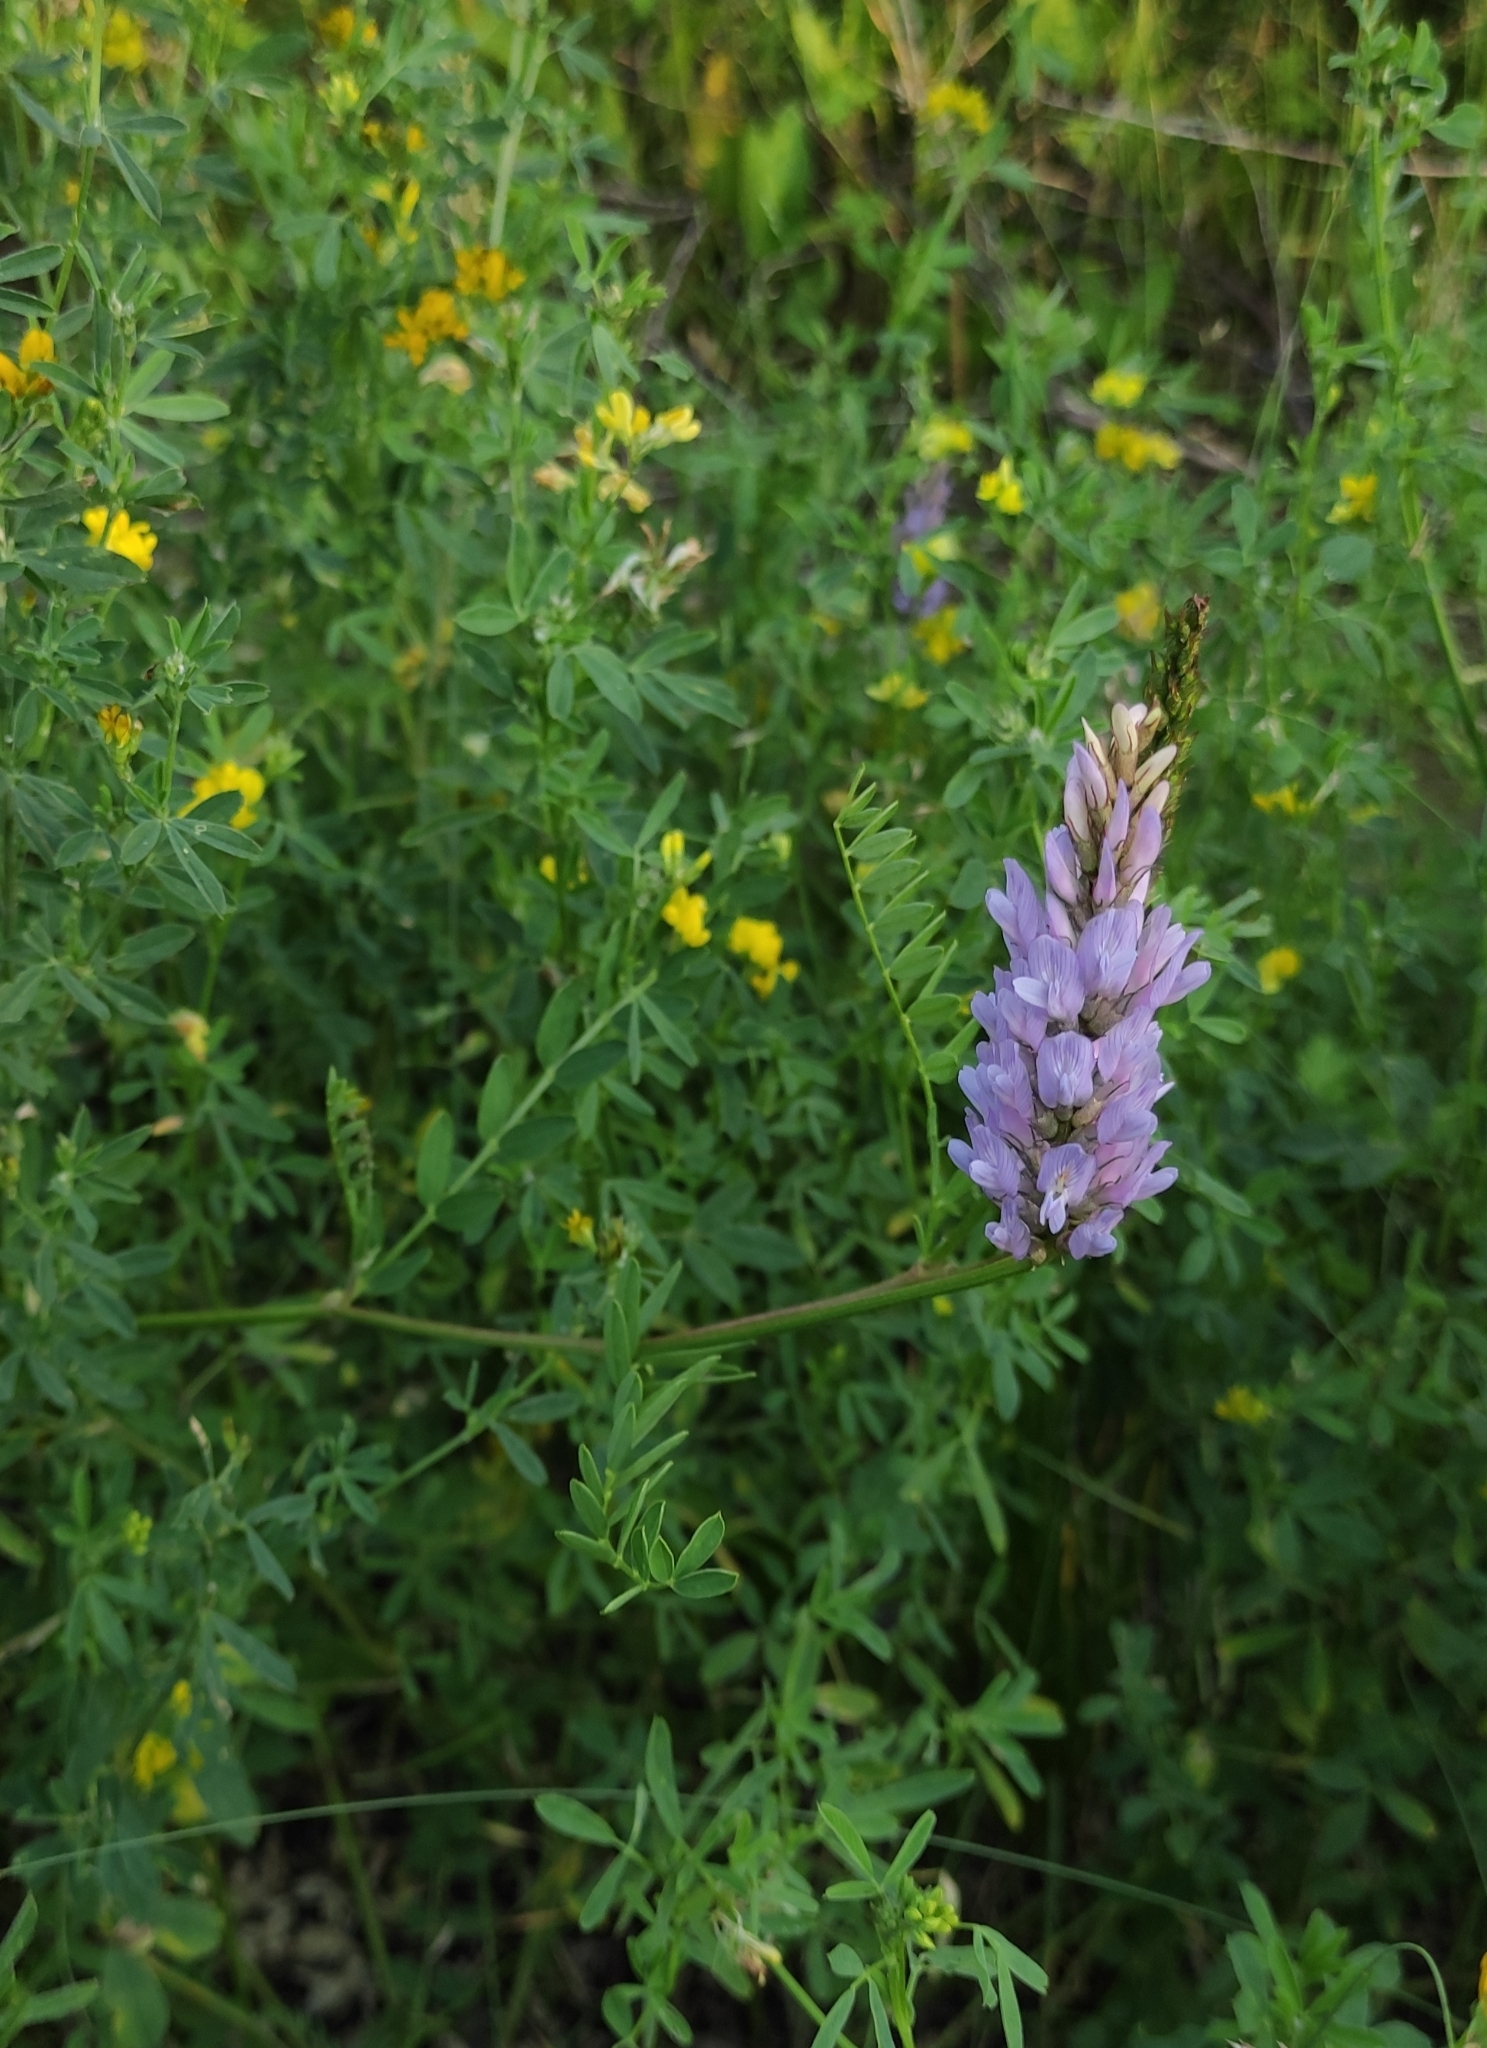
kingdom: Plantae
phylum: Tracheophyta
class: Magnoliopsida
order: Fabales
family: Fabaceae
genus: Astragalus
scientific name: Astragalus laxmannii
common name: Laxmann's milk-vetch
